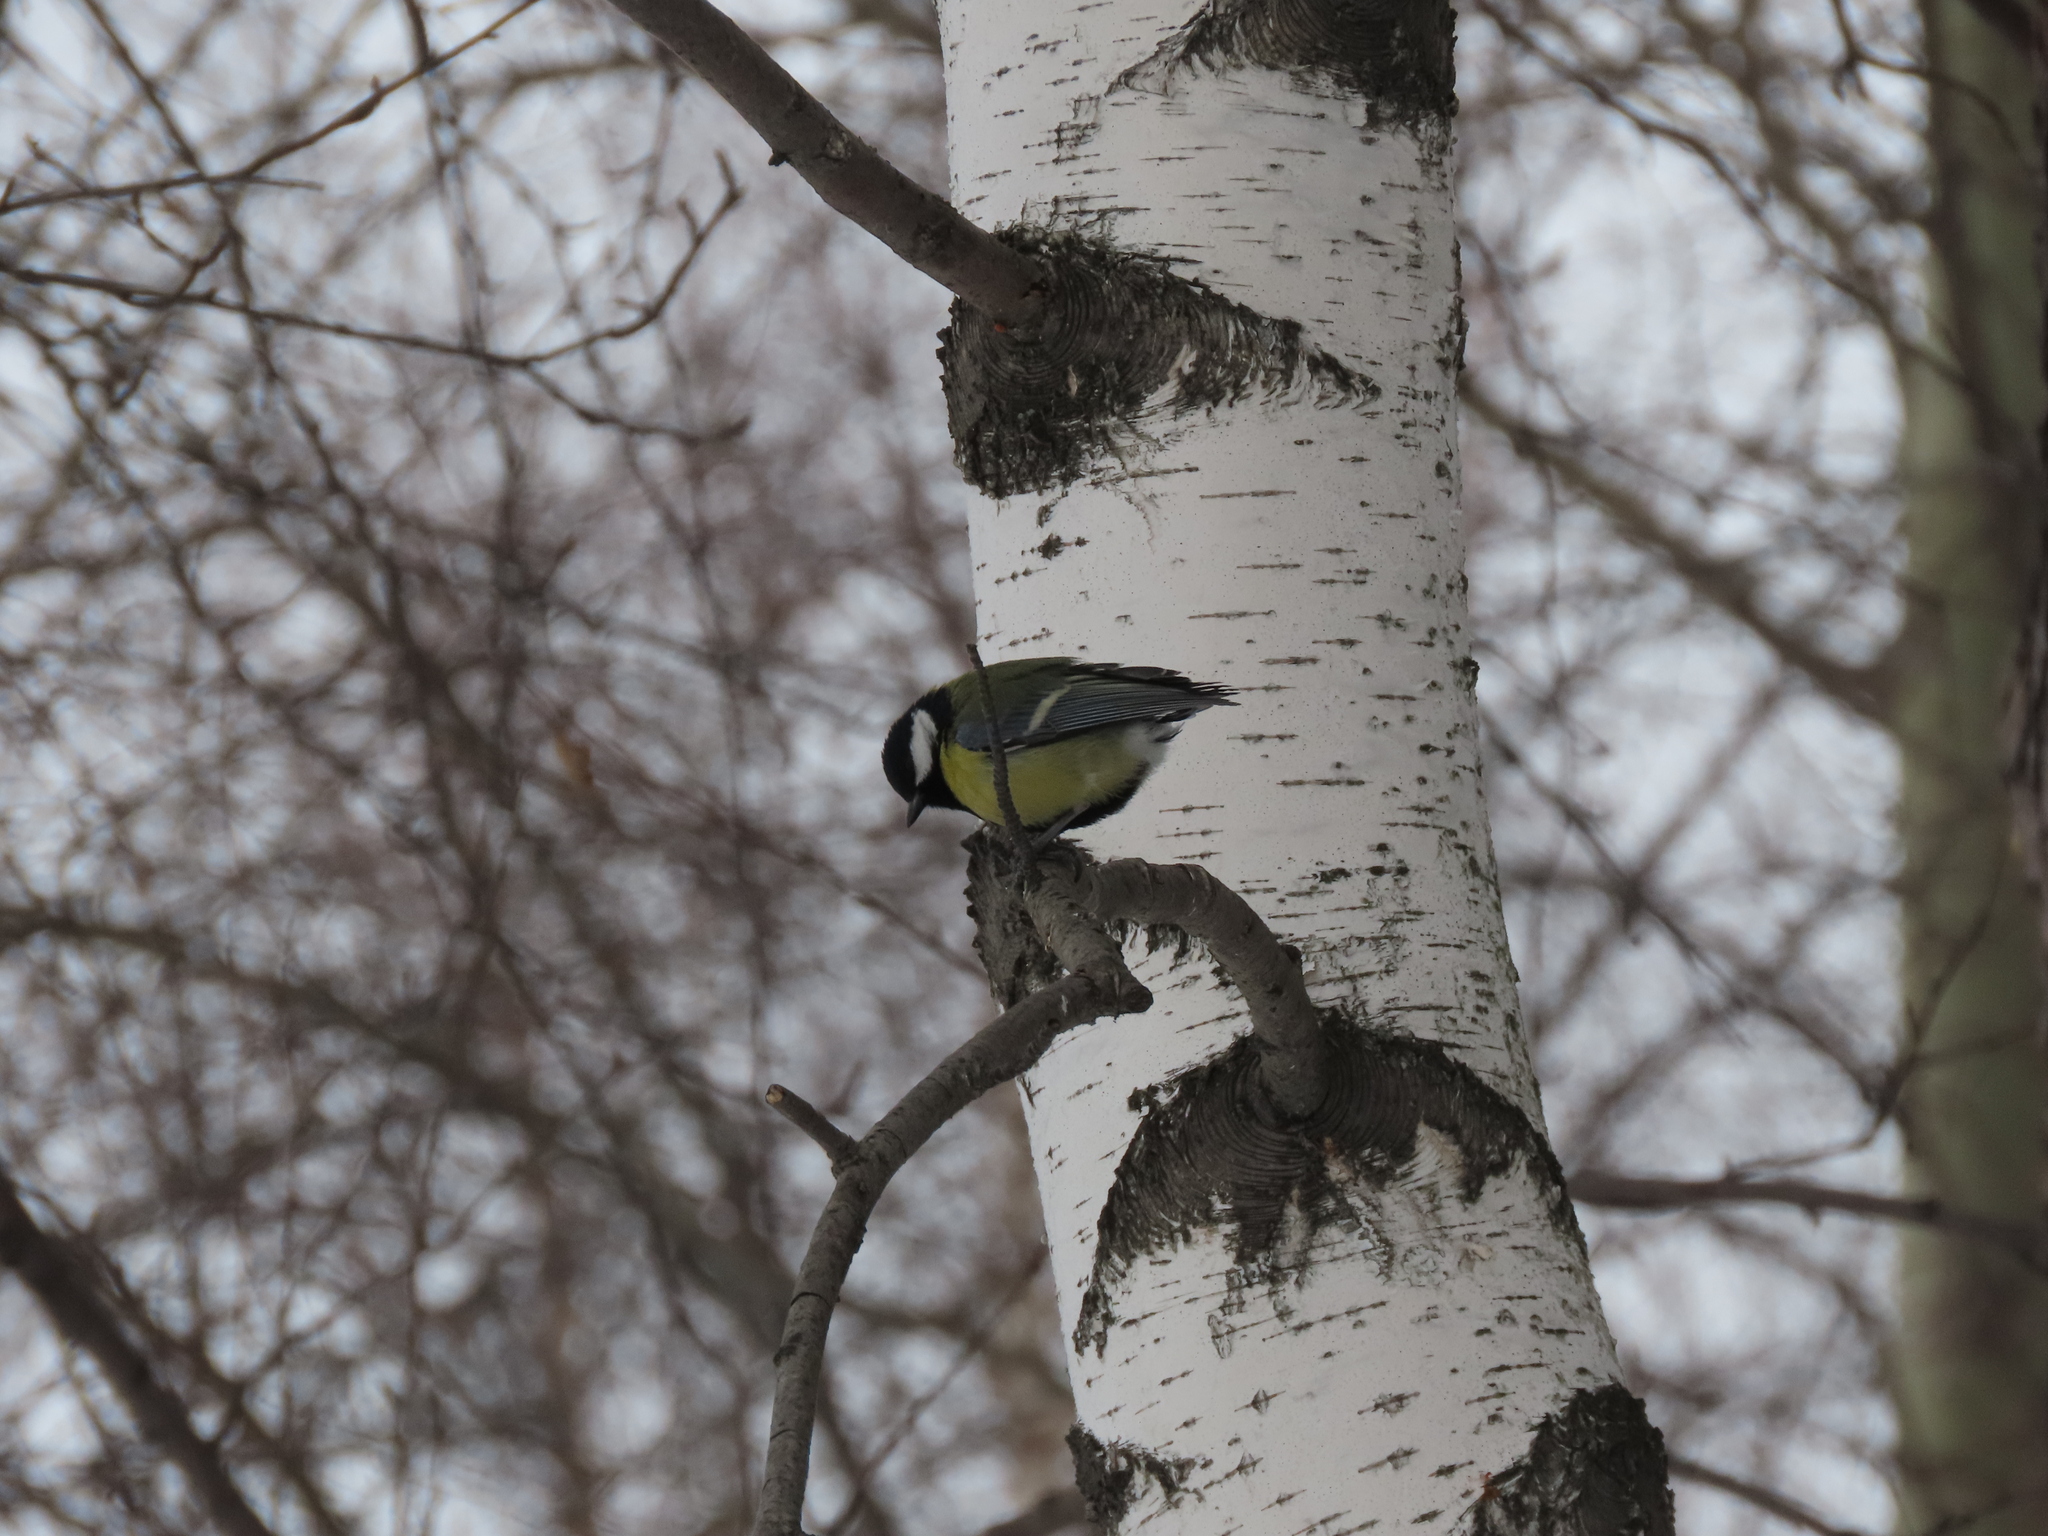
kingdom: Animalia
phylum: Chordata
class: Aves
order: Passeriformes
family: Paridae
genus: Parus
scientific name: Parus major
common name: Great tit
